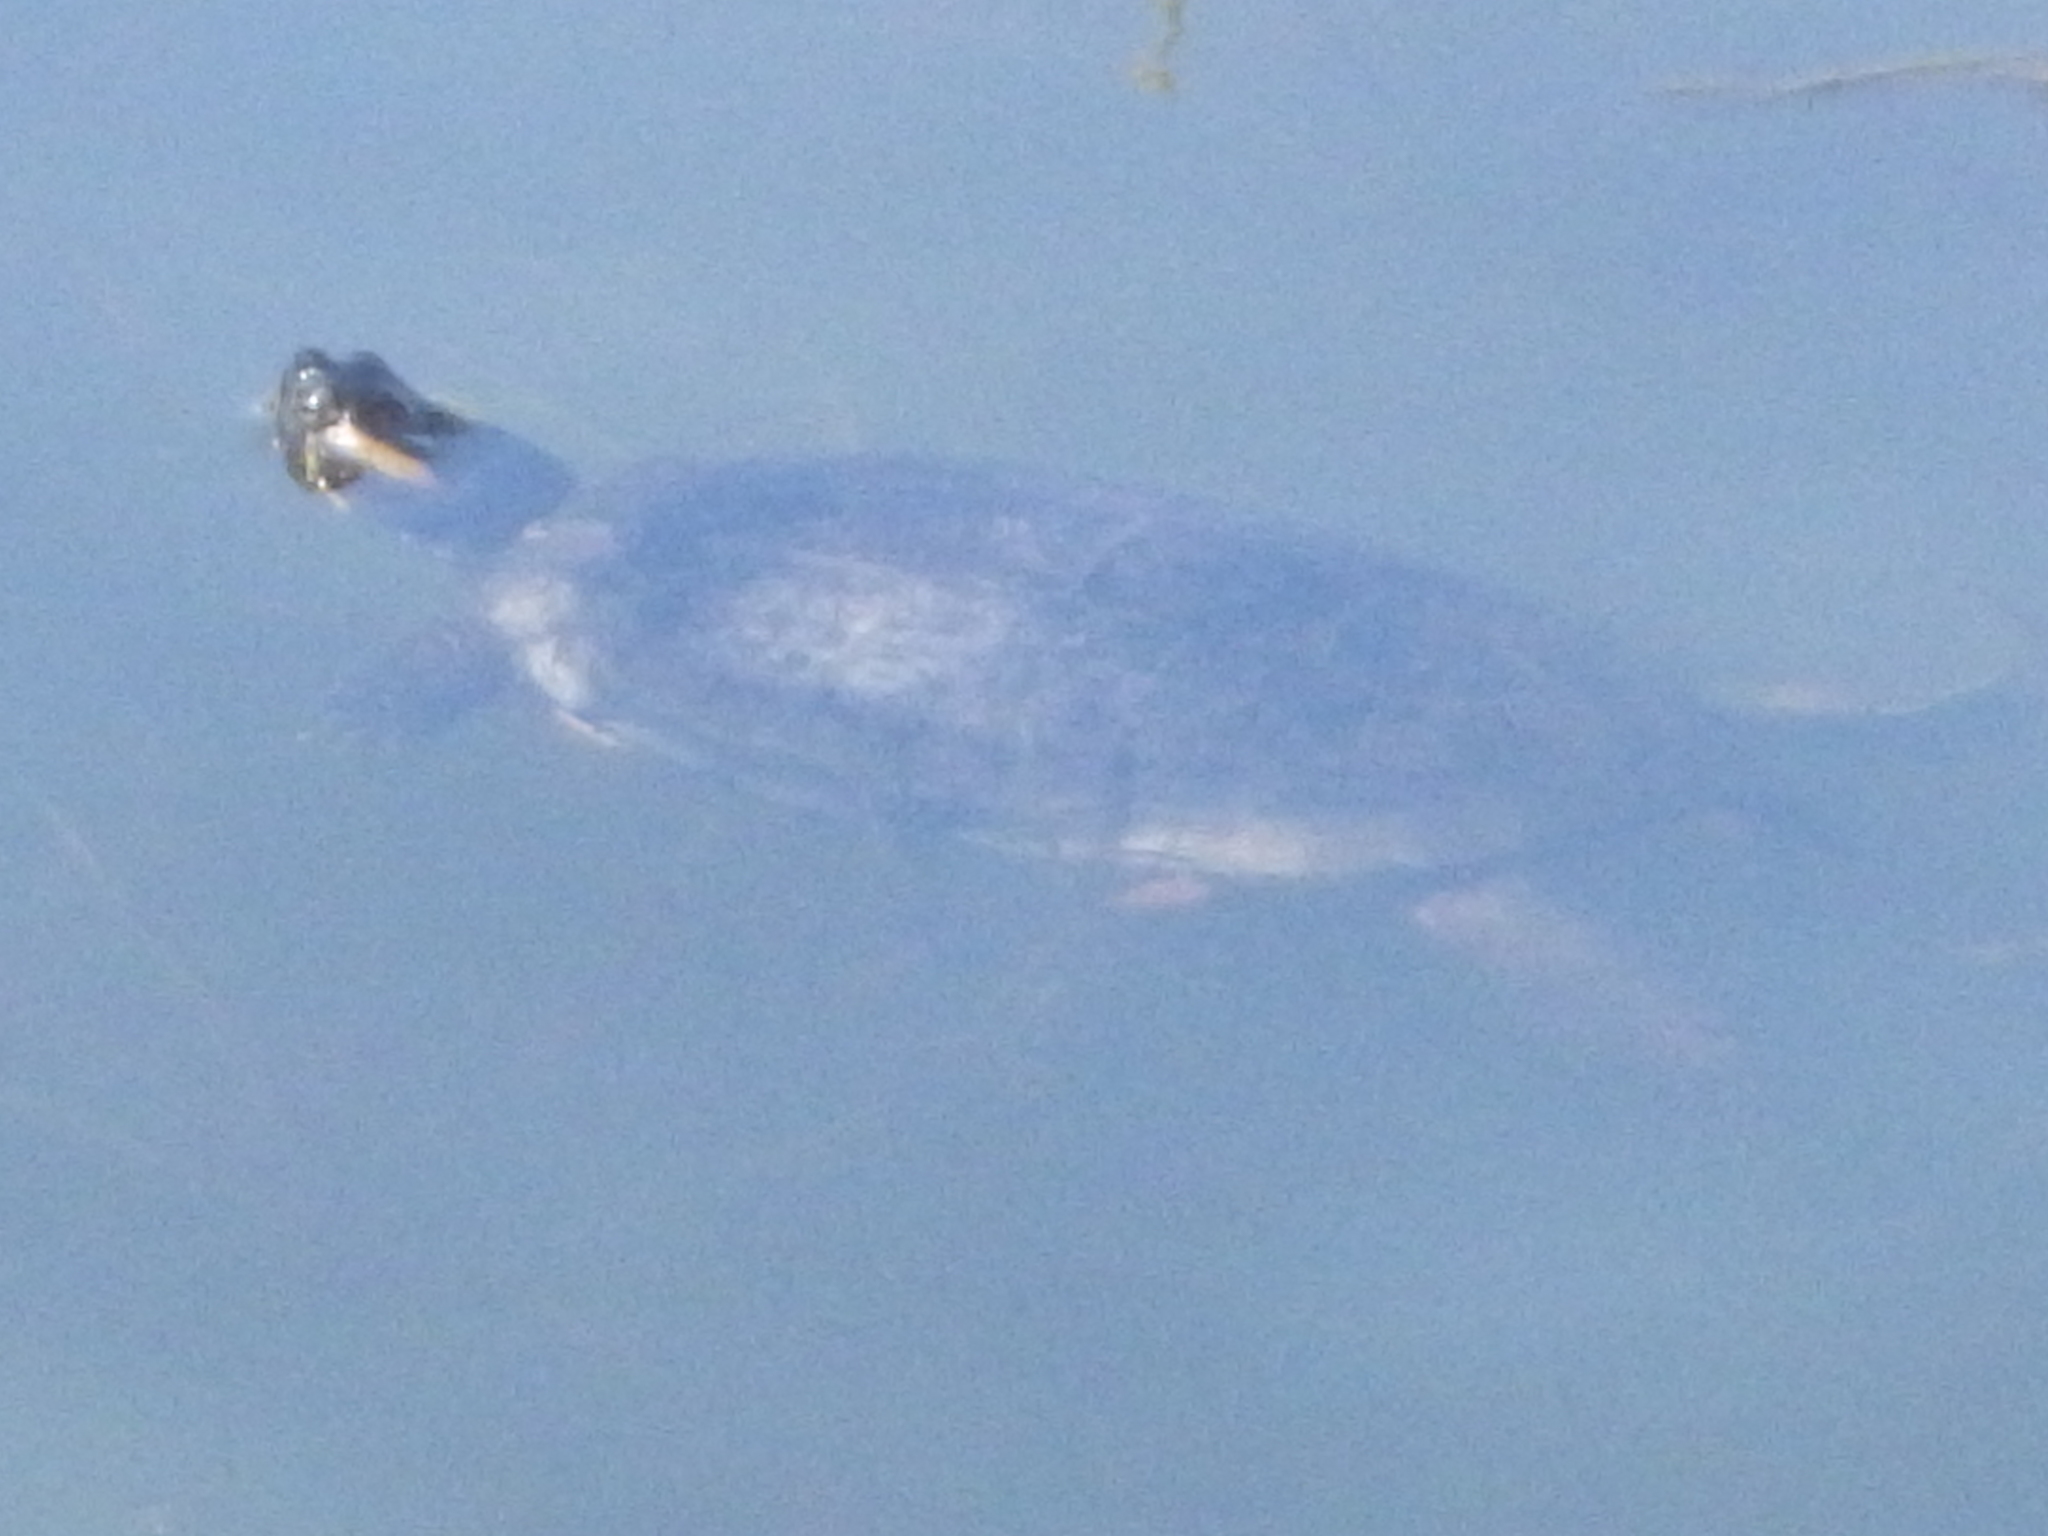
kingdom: Animalia
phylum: Chordata
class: Testudines
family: Emydidae
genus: Trachemys
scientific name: Trachemys scripta
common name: Slider
